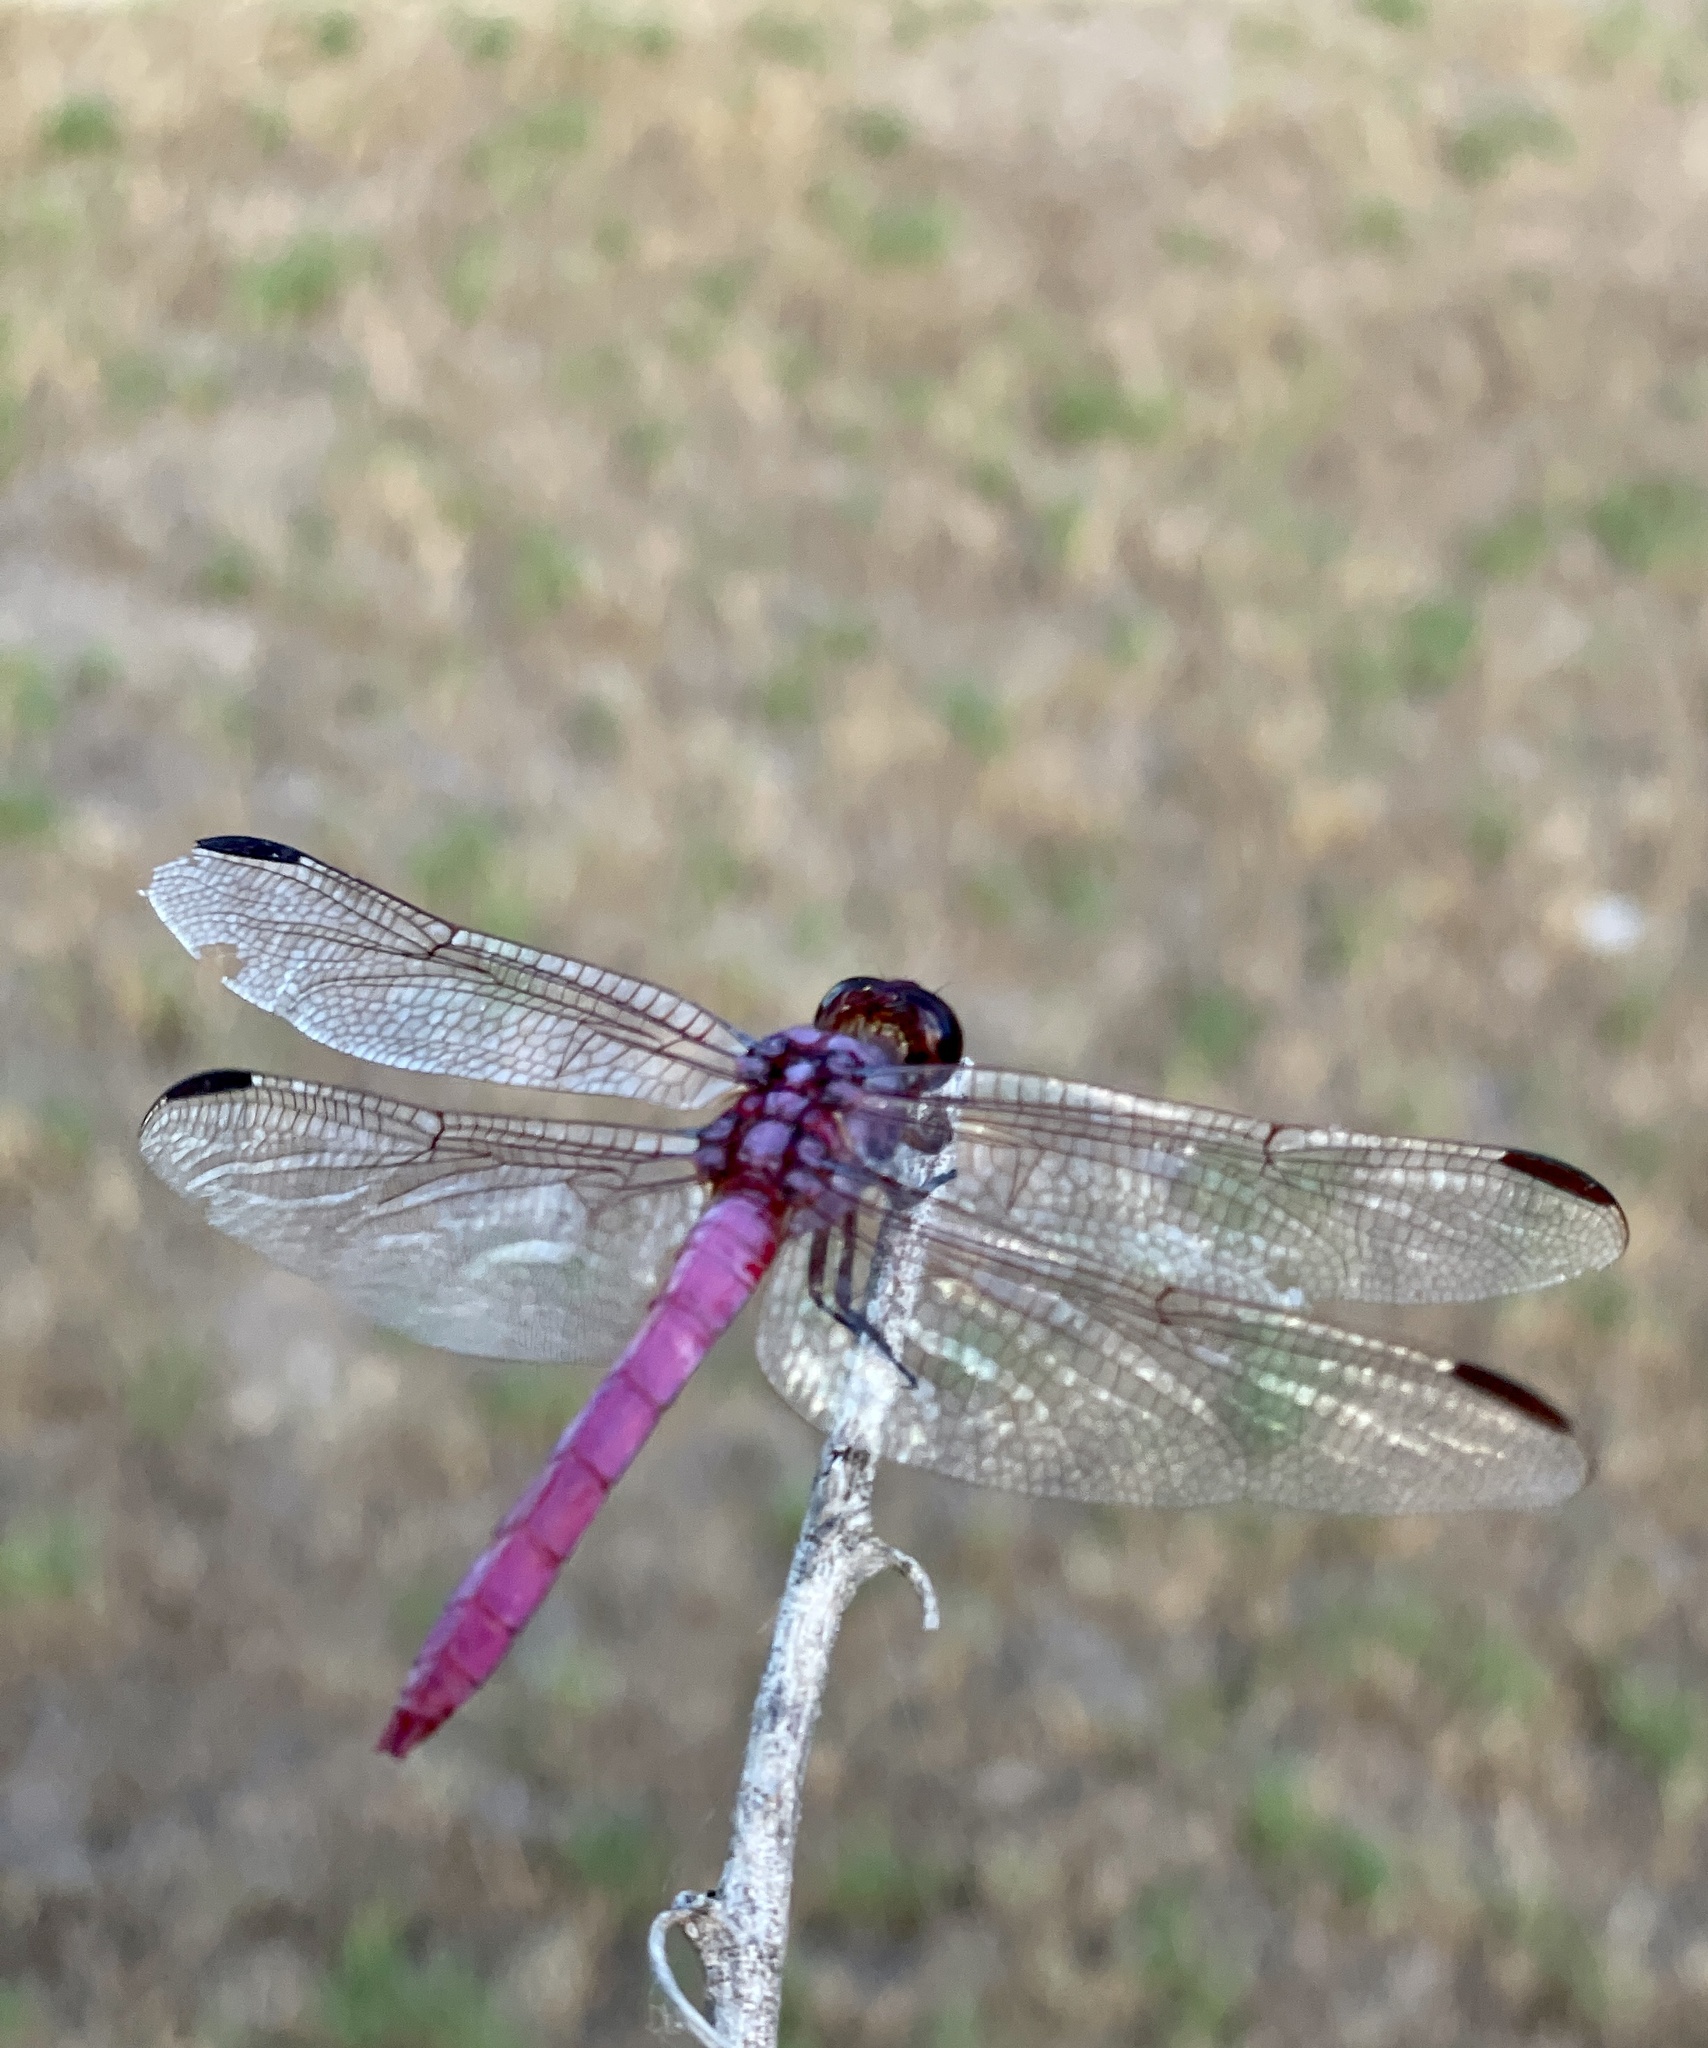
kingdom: Animalia
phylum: Arthropoda
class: Insecta
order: Odonata
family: Libellulidae
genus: Orthemis
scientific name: Orthemis ferruginea
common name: Roseate skimmer
